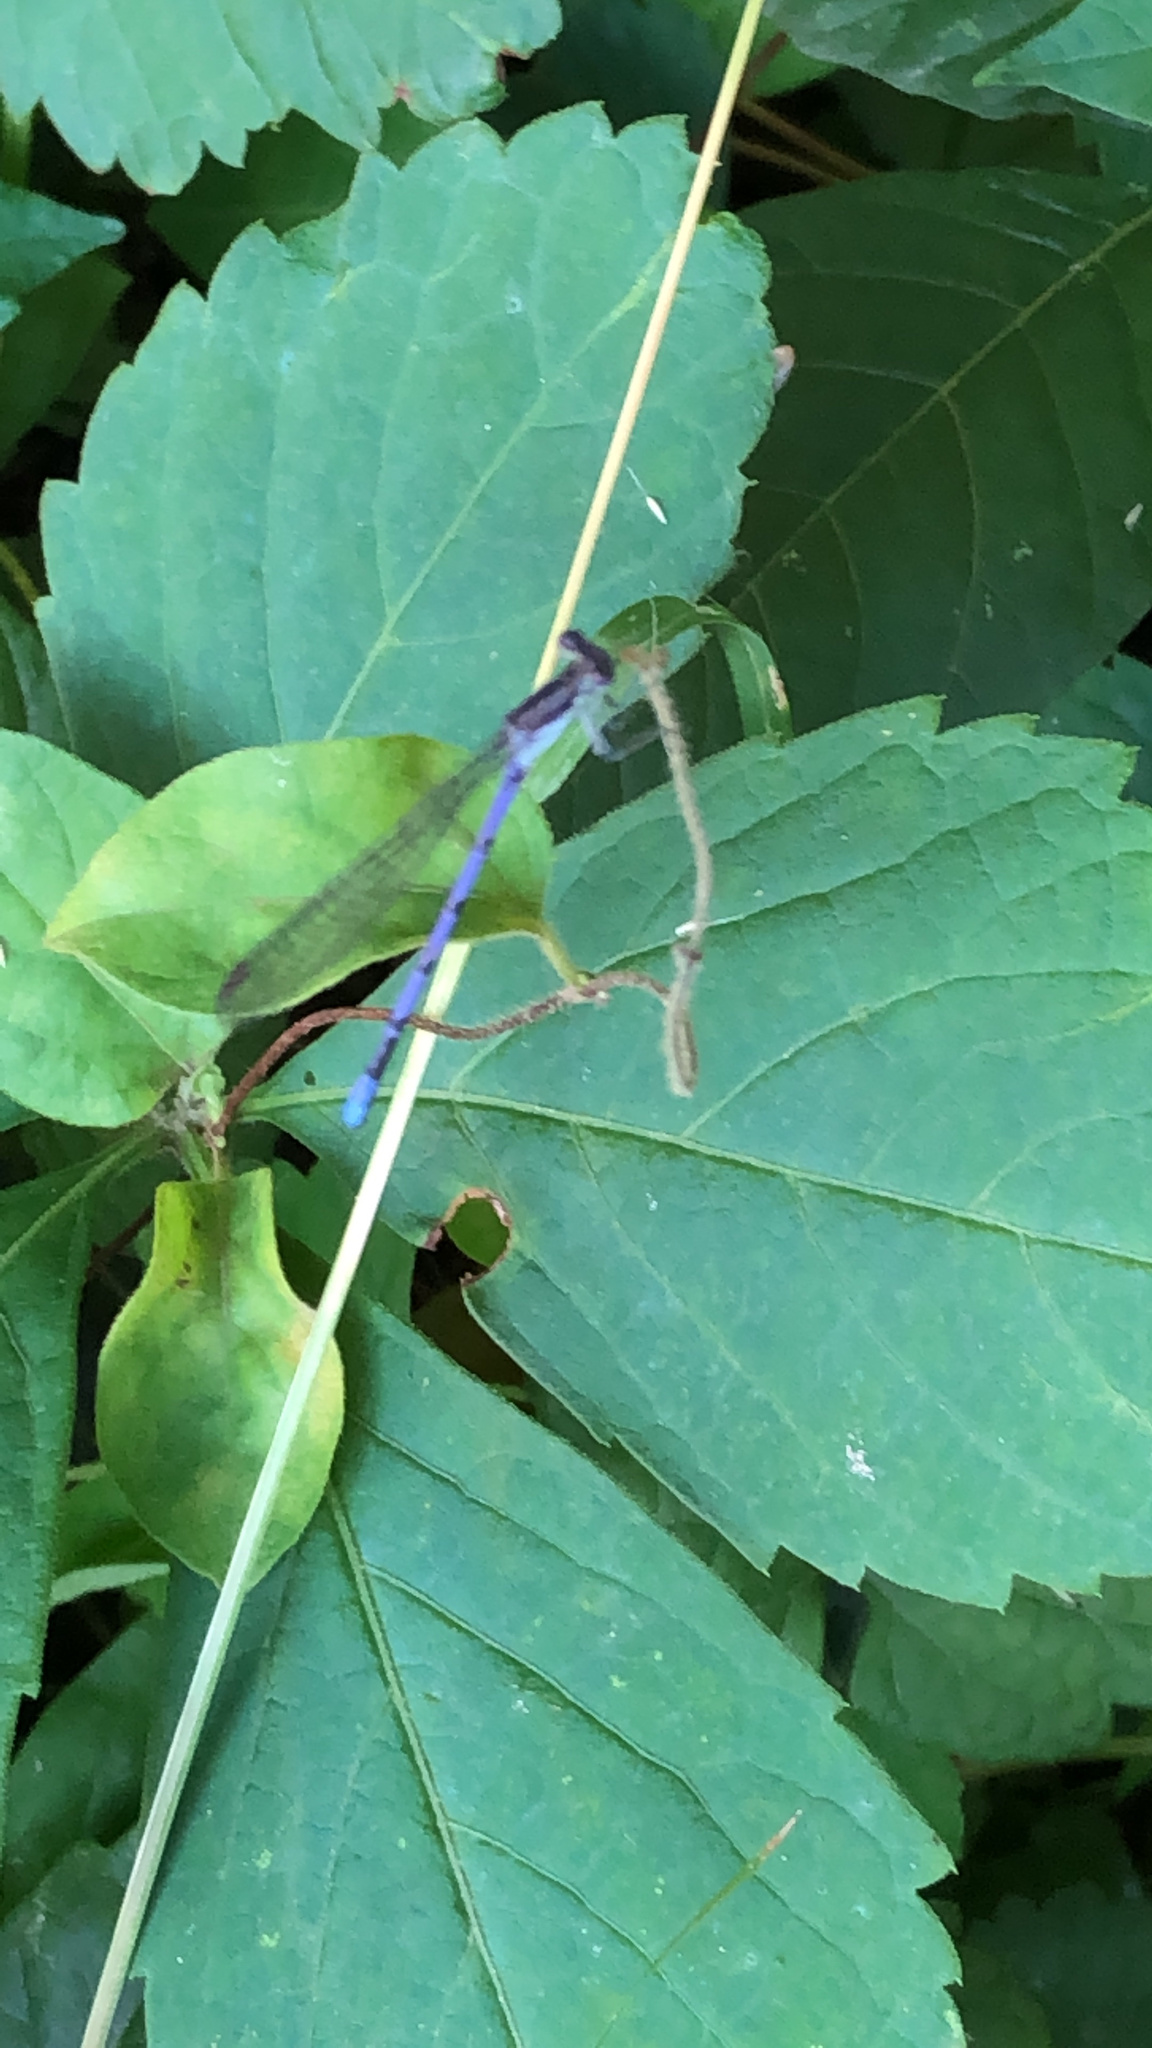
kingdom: Animalia
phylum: Arthropoda
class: Insecta
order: Odonata
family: Coenagrionidae
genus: Argia
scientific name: Argia fumipennis
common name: Variable dancer
